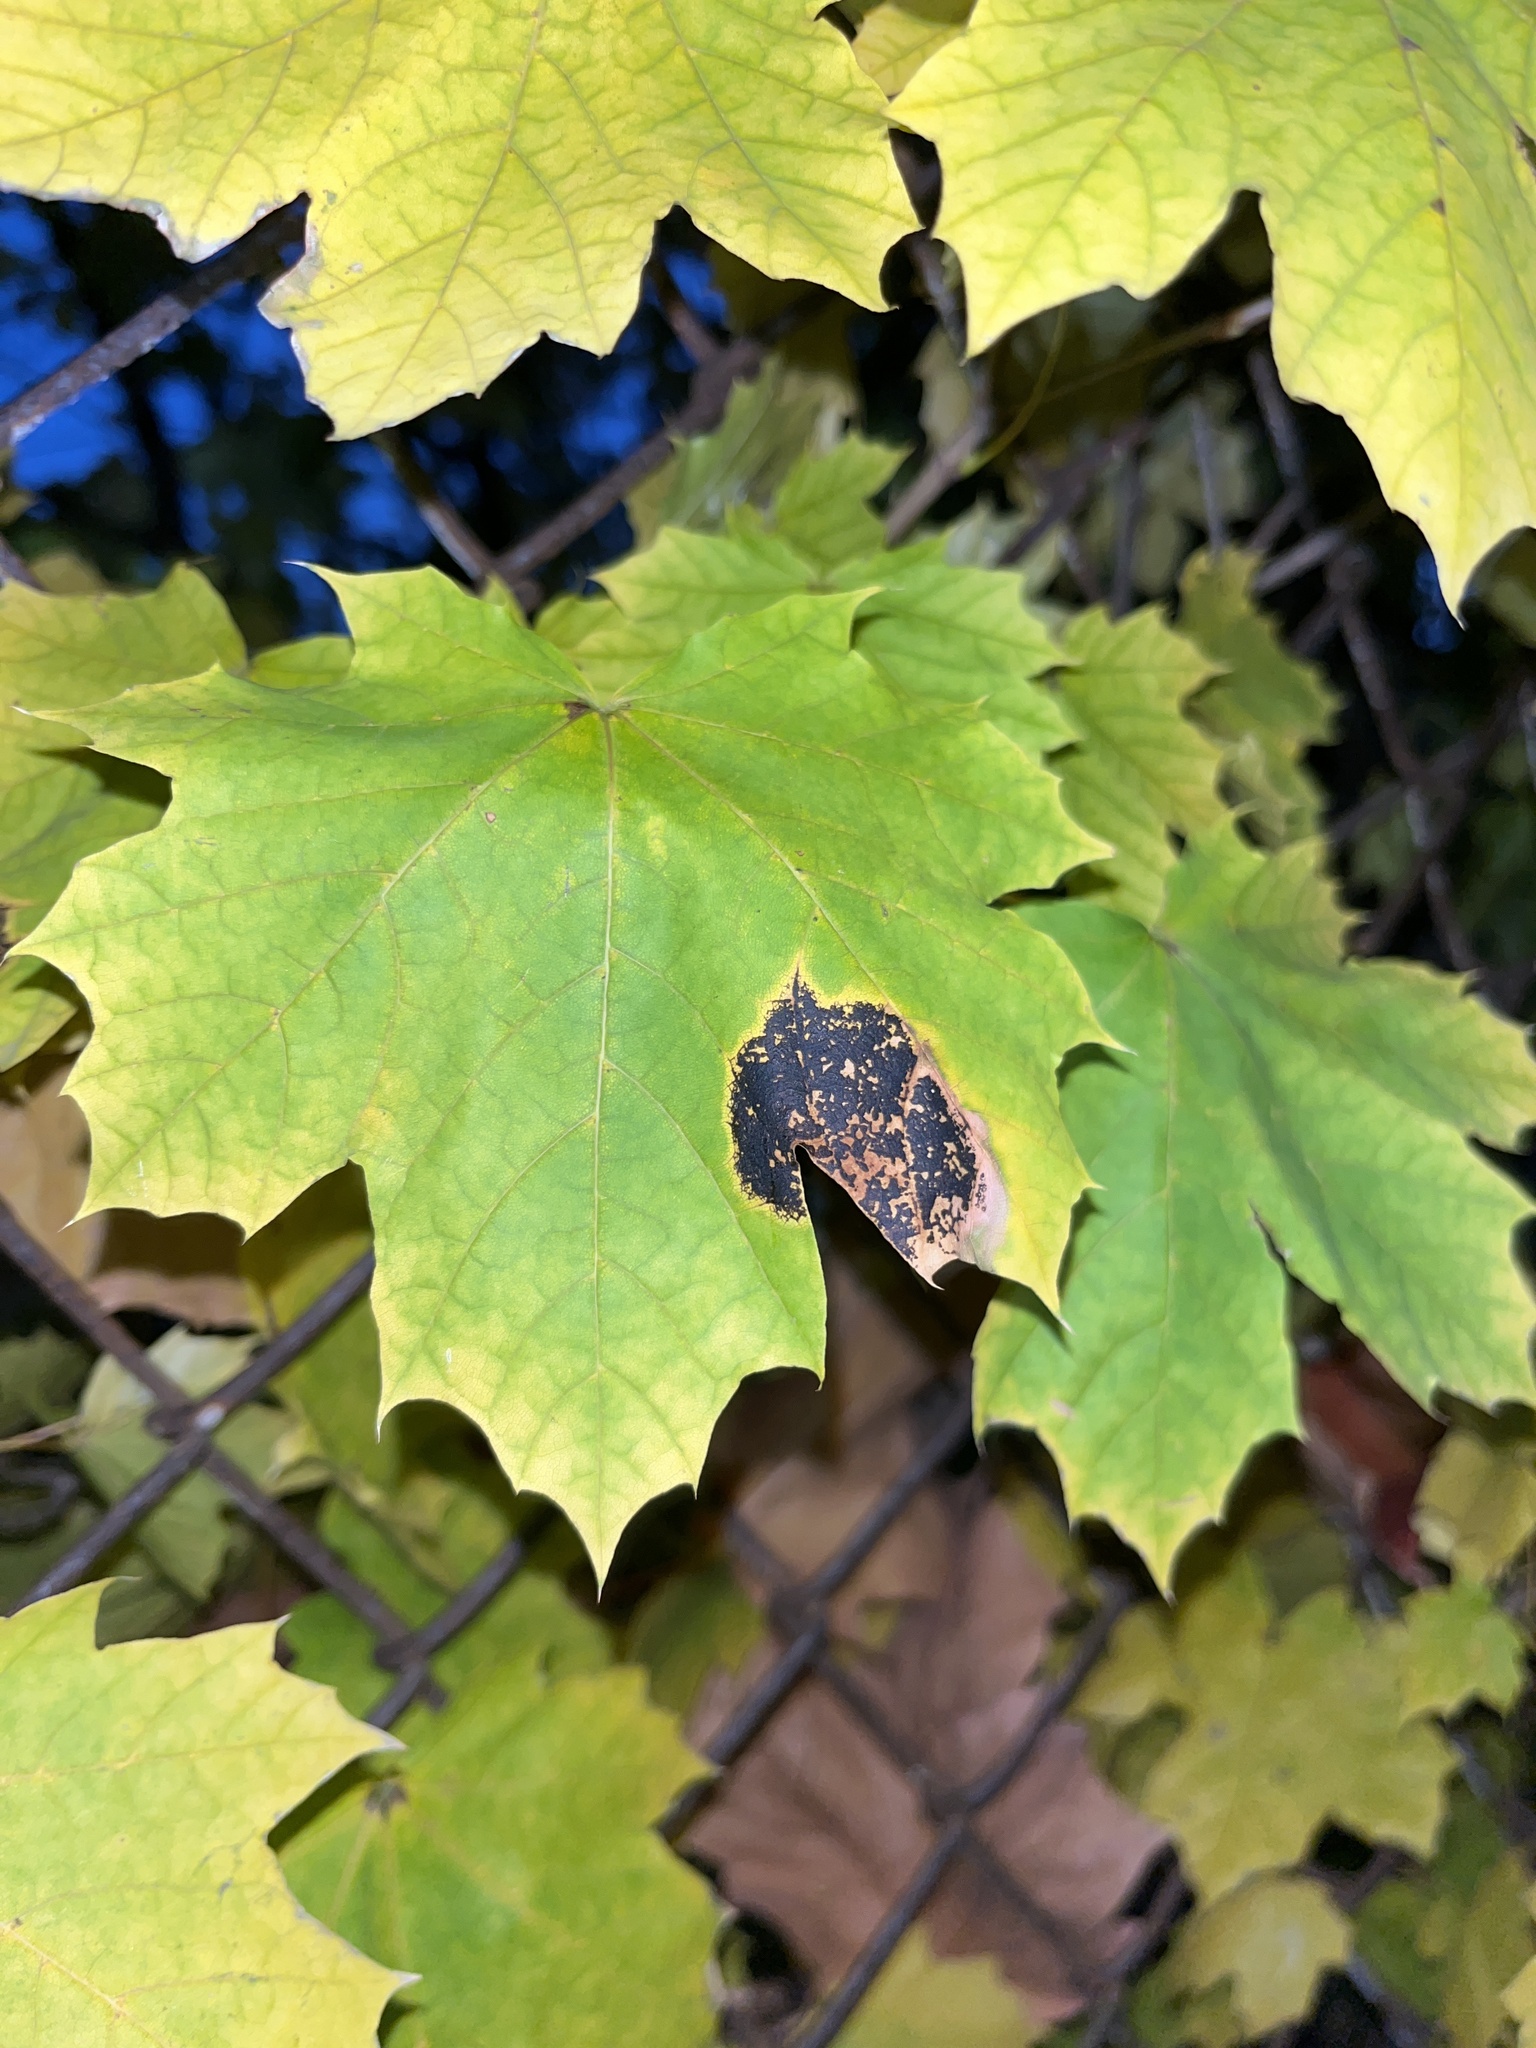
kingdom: Fungi
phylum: Ascomycota
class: Leotiomycetes
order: Rhytismatales
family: Rhytismataceae
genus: Rhytisma
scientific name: Rhytisma acerinum
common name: European tar spot
